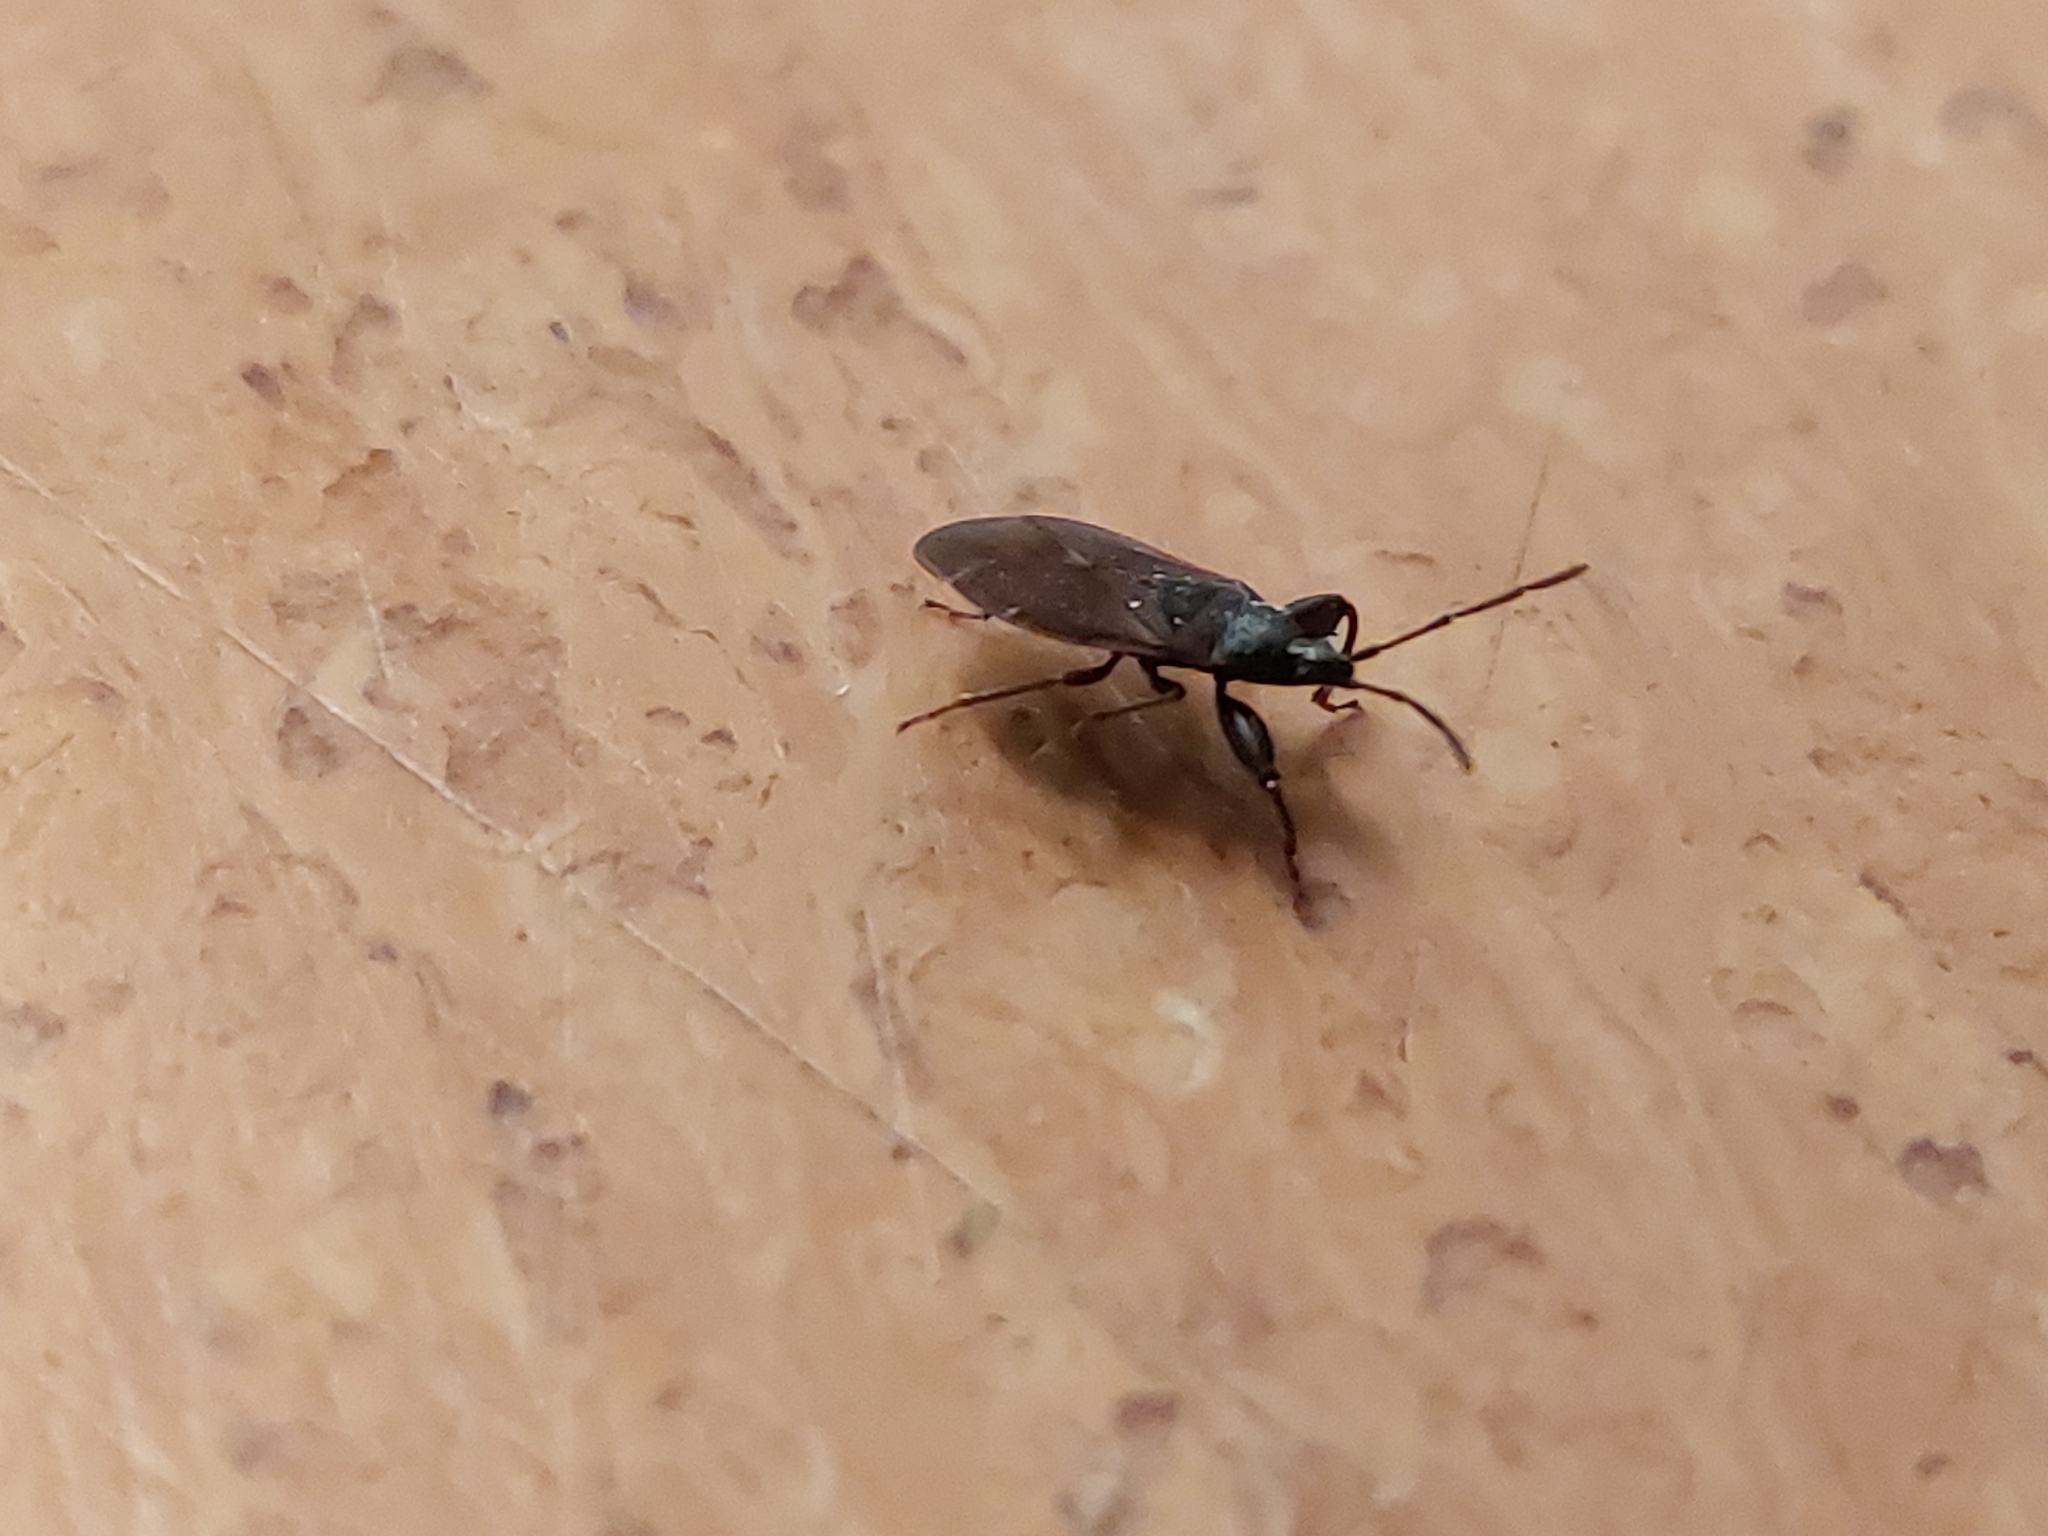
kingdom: Animalia
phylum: Arthropoda
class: Insecta
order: Hemiptera
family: Rhyparochromidae
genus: Gastrodes
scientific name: Gastrodes grossipes
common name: Pine cone bug
